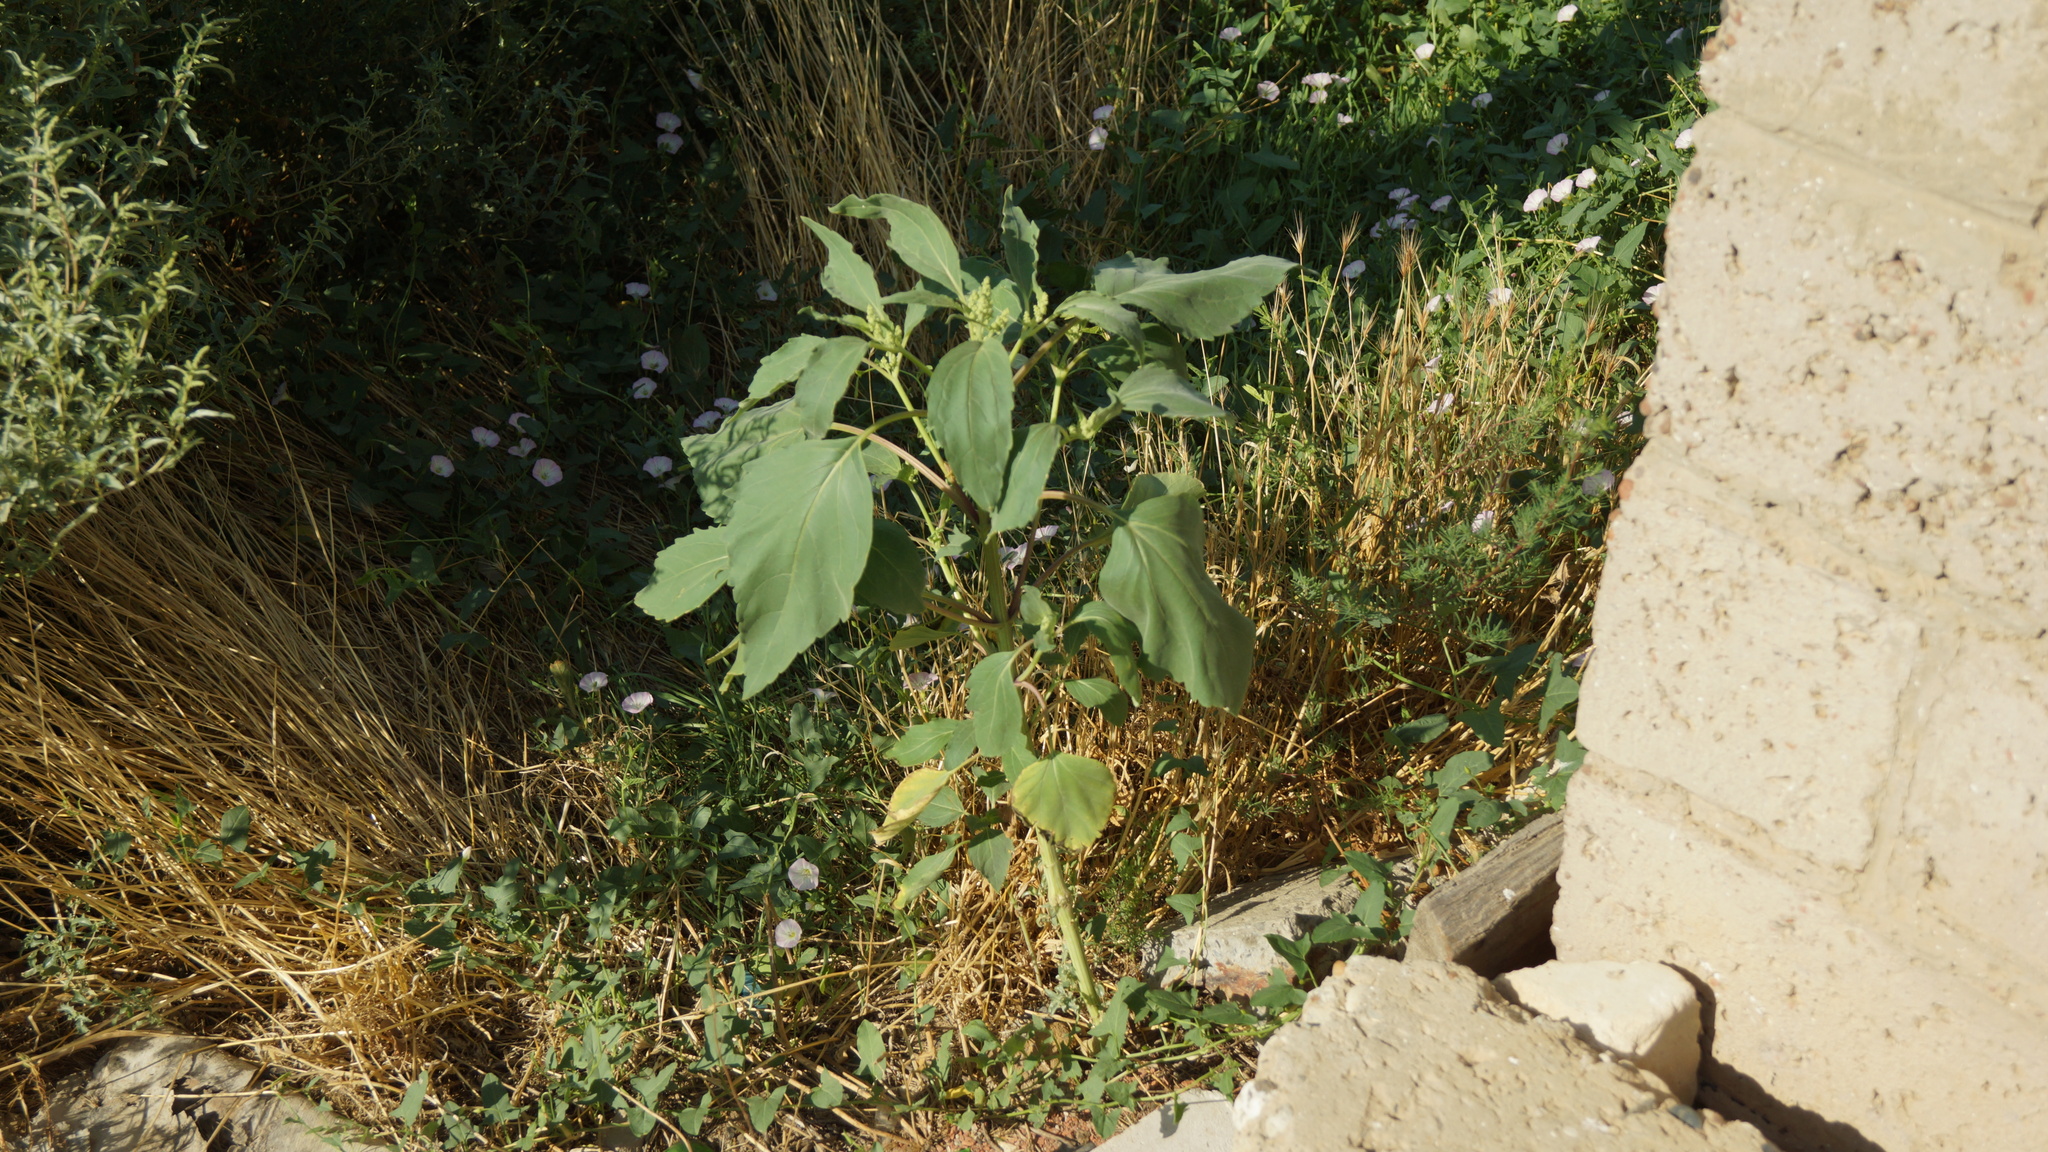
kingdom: Plantae
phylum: Tracheophyta
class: Magnoliopsida
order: Asterales
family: Asteraceae
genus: Cyclachaena
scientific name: Cyclachaena xanthiifolia
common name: Giant sumpweed
